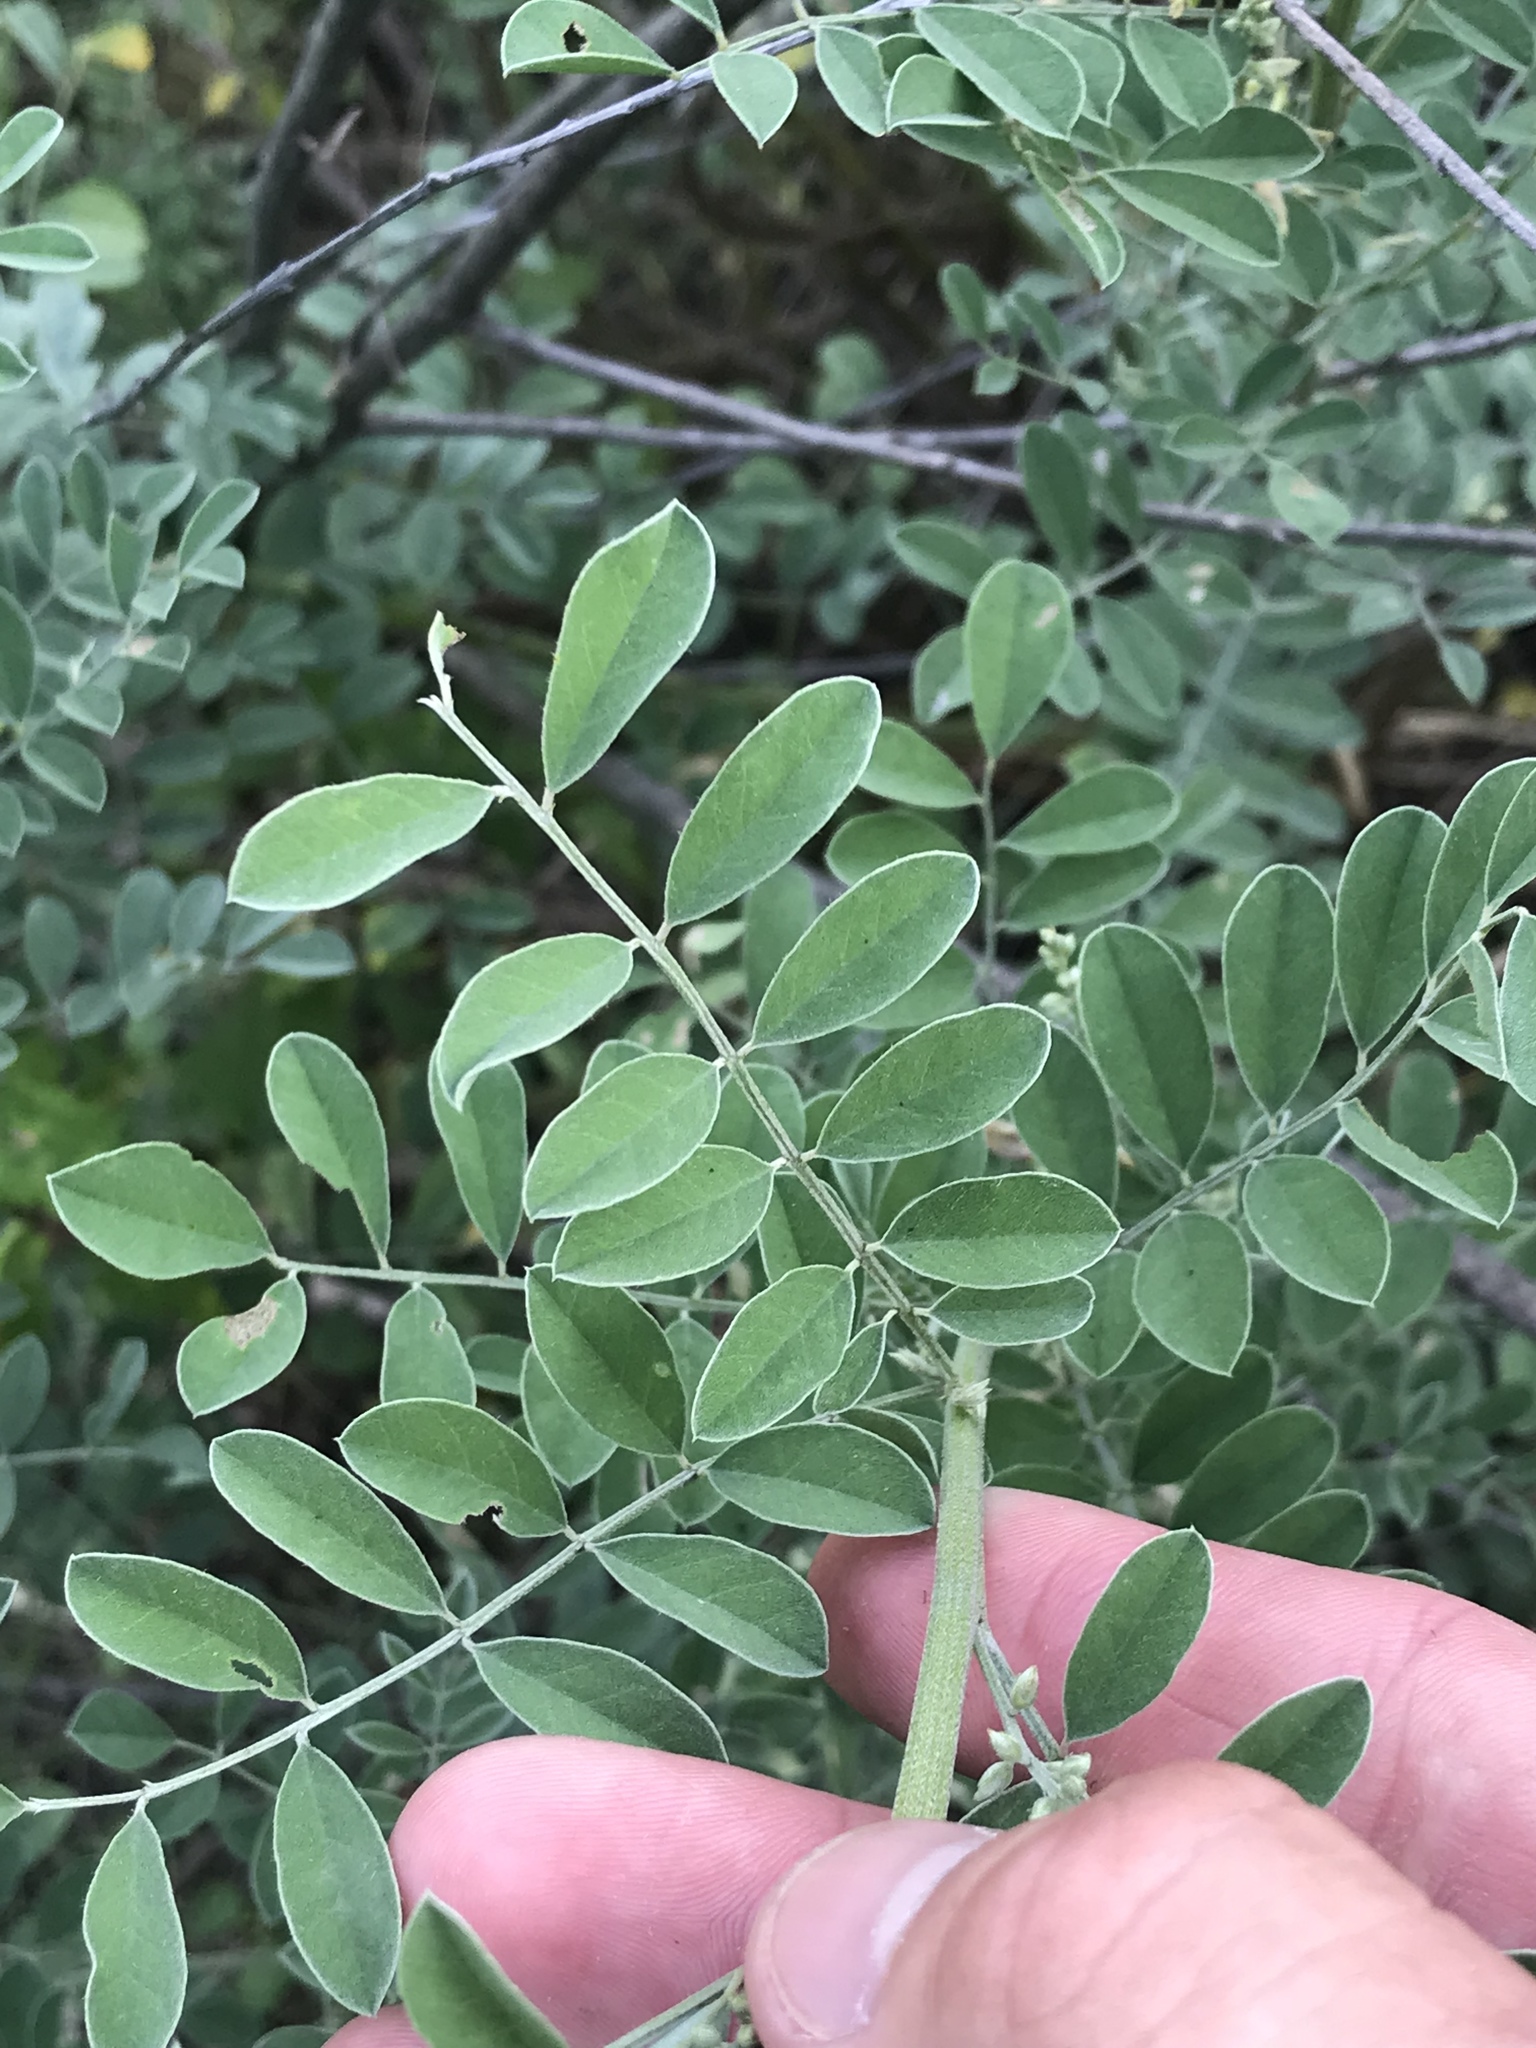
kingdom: Plantae
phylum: Tracheophyta
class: Magnoliopsida
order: Fabales
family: Fabaceae
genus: Indigofera
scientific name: Indigofera lindheimeriana
